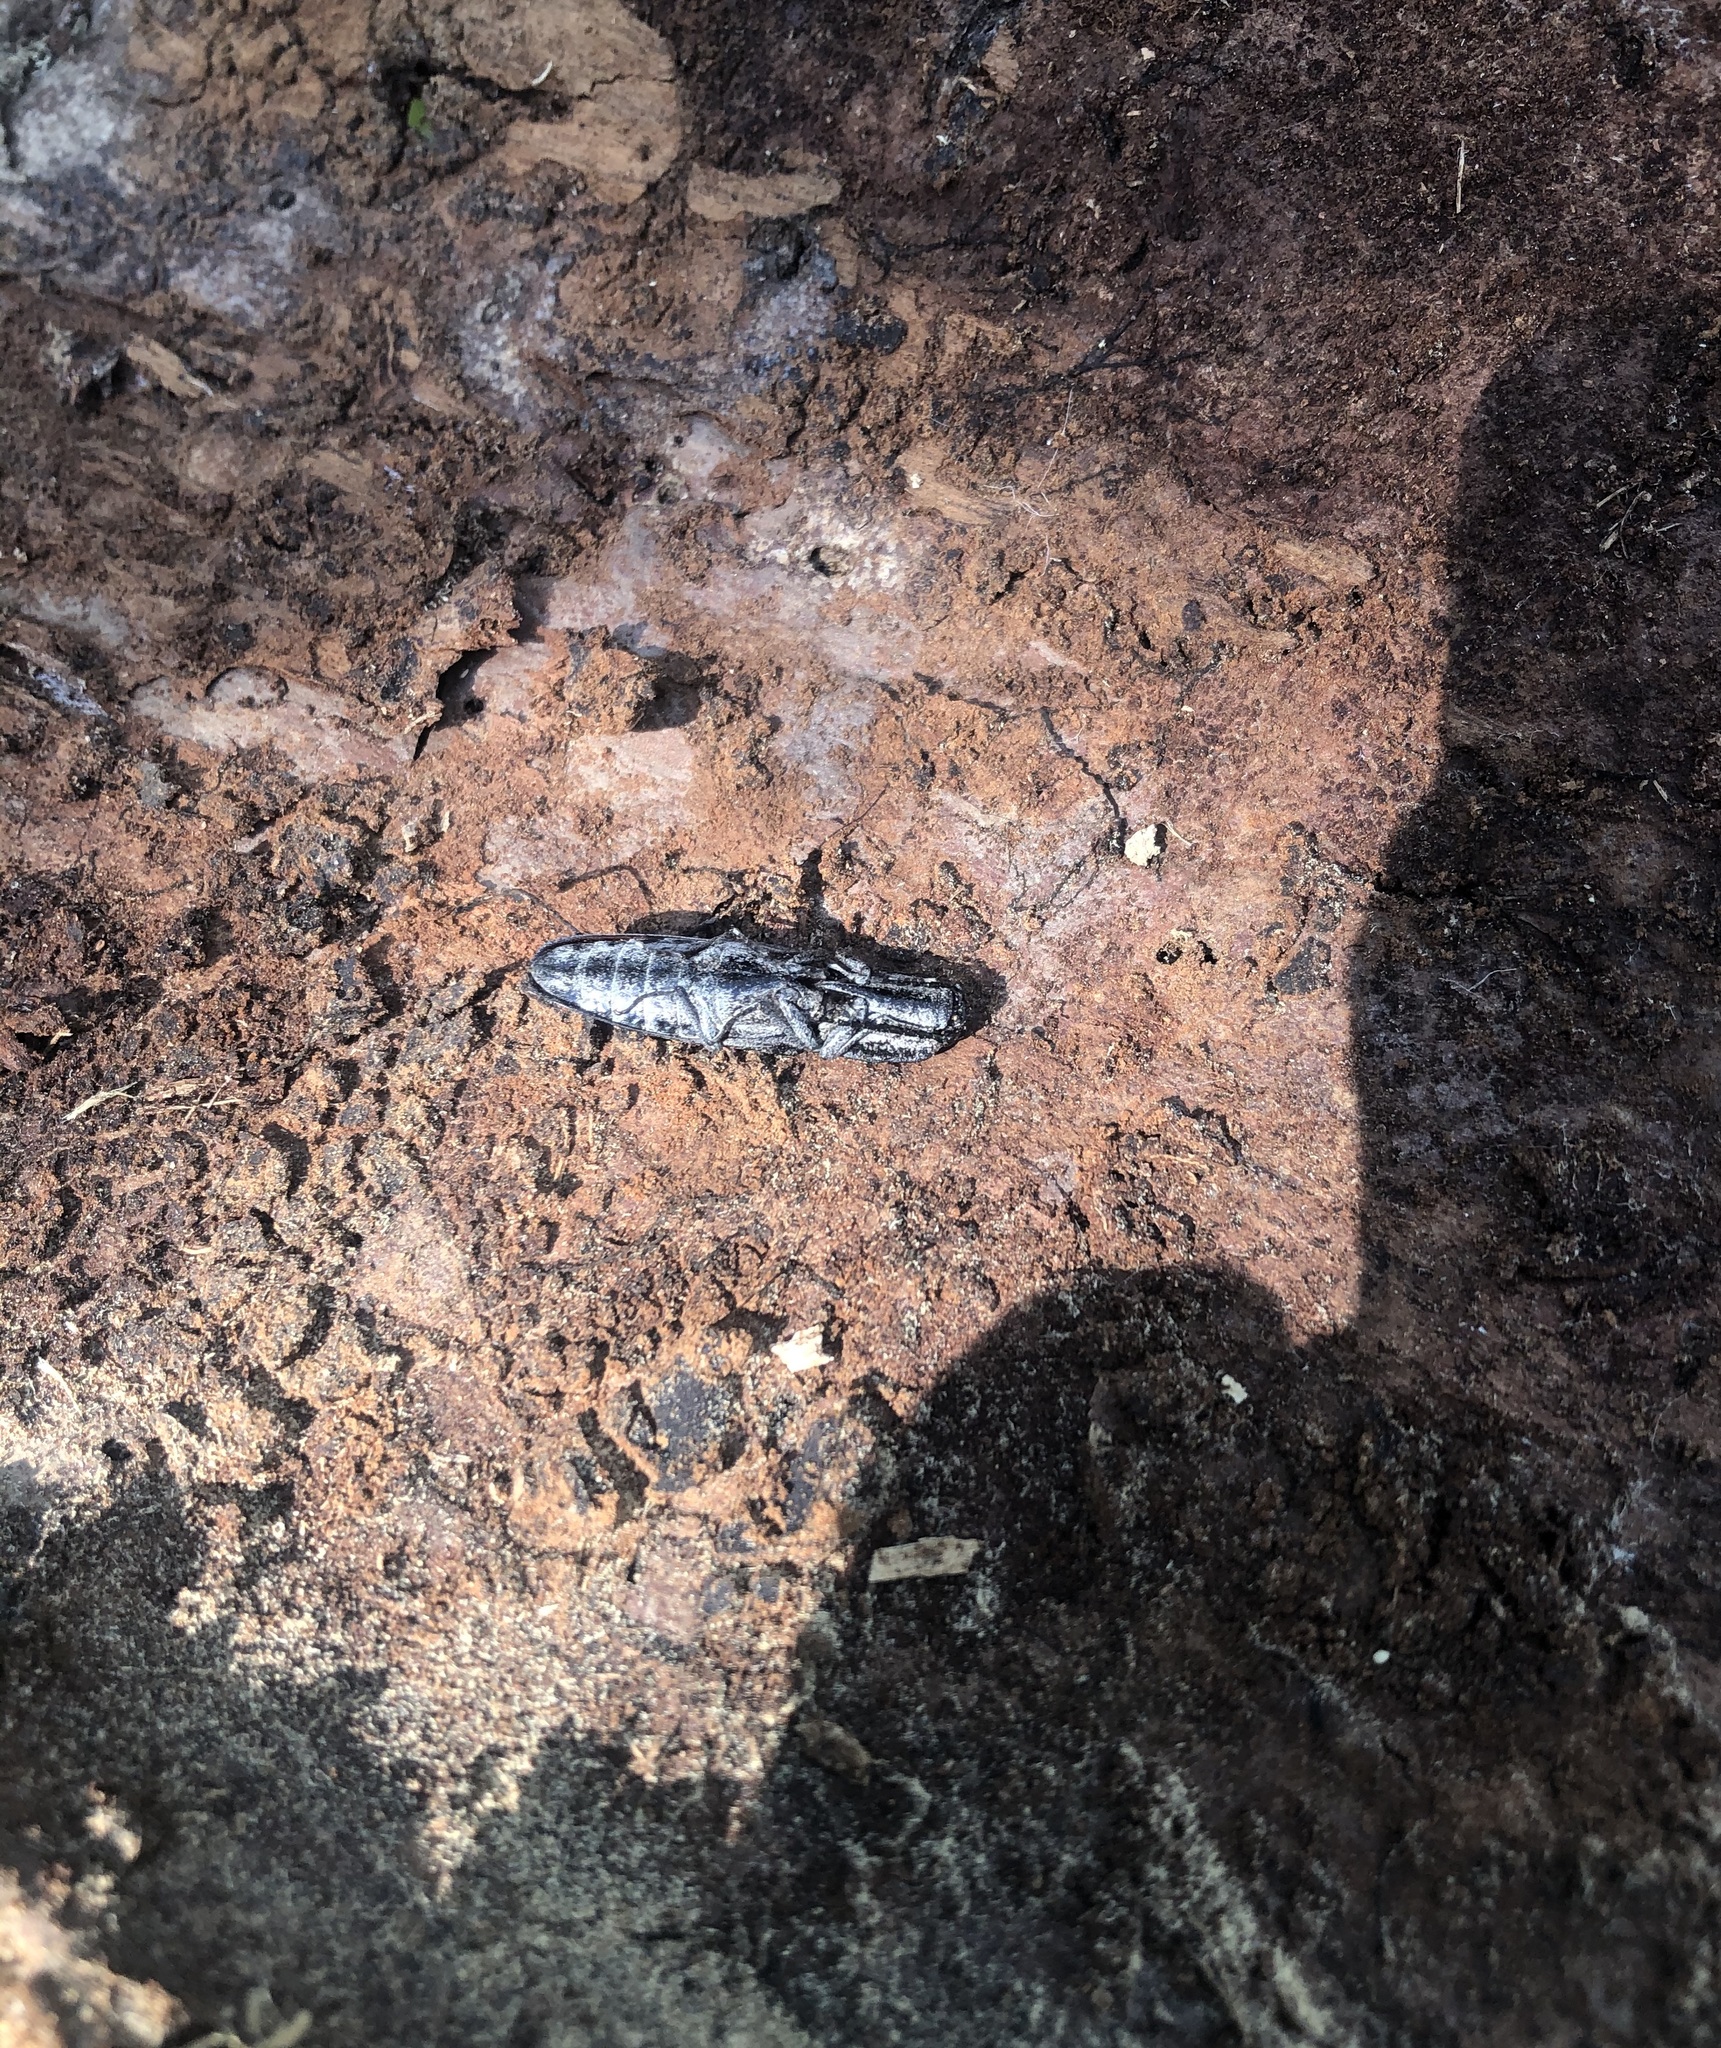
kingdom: Animalia
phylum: Arthropoda
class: Insecta
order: Coleoptera
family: Elateridae
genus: Alaus
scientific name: Alaus myops
